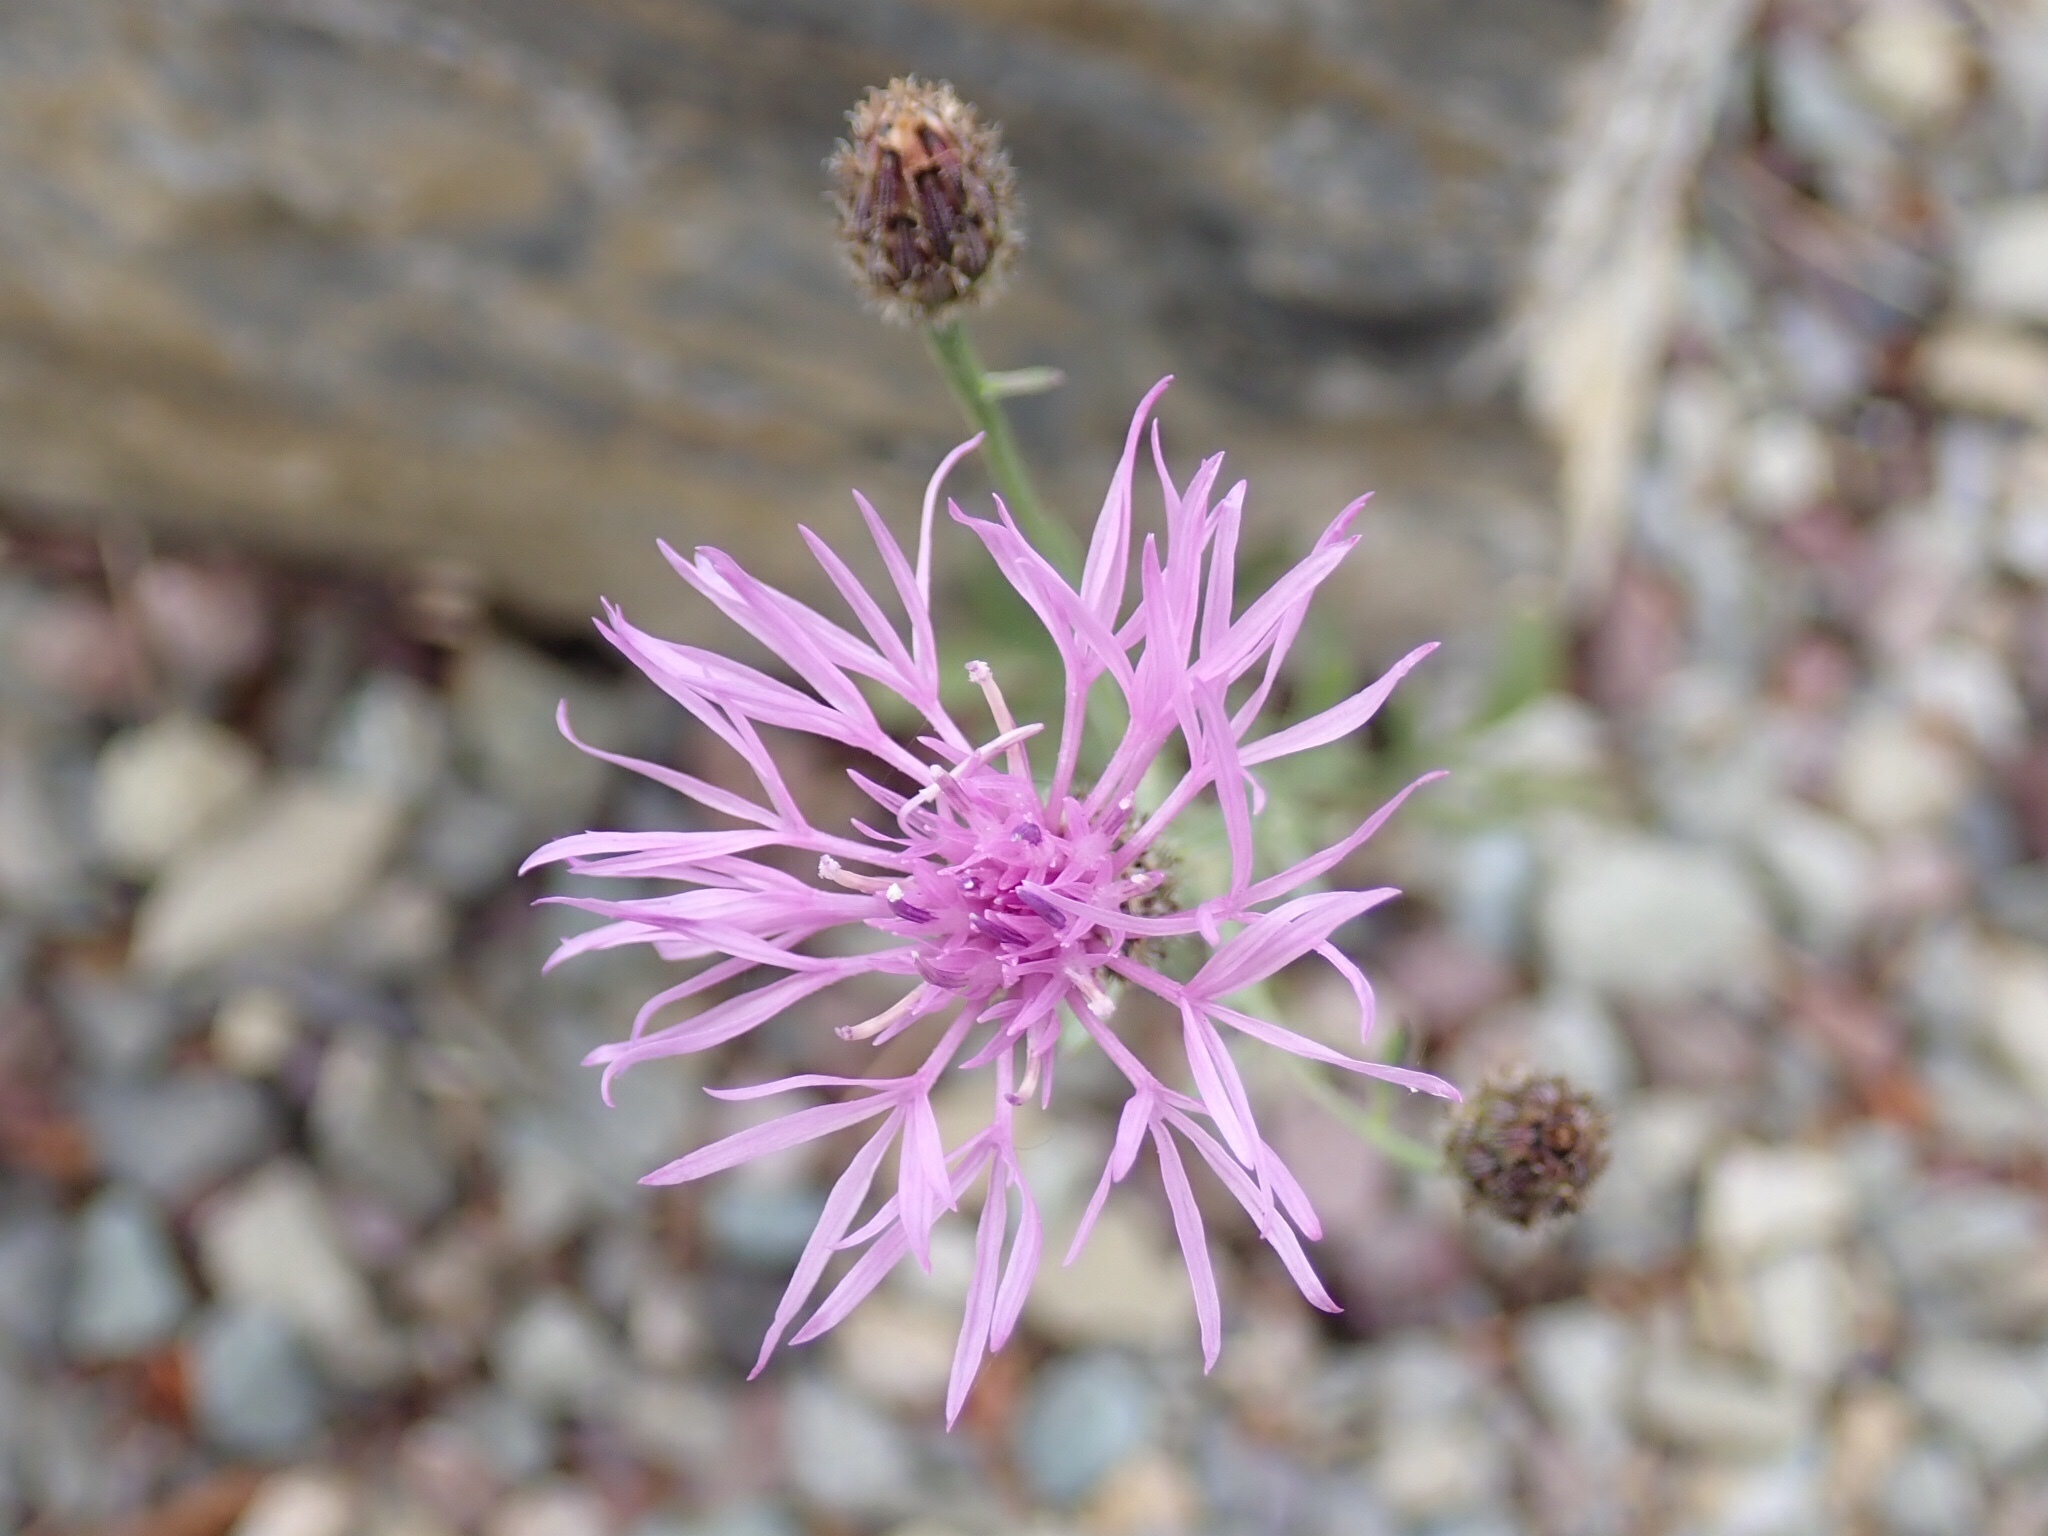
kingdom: Plantae
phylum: Tracheophyta
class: Magnoliopsida
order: Asterales
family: Asteraceae
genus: Centaurea
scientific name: Centaurea stoebe
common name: Spotted knapweed
